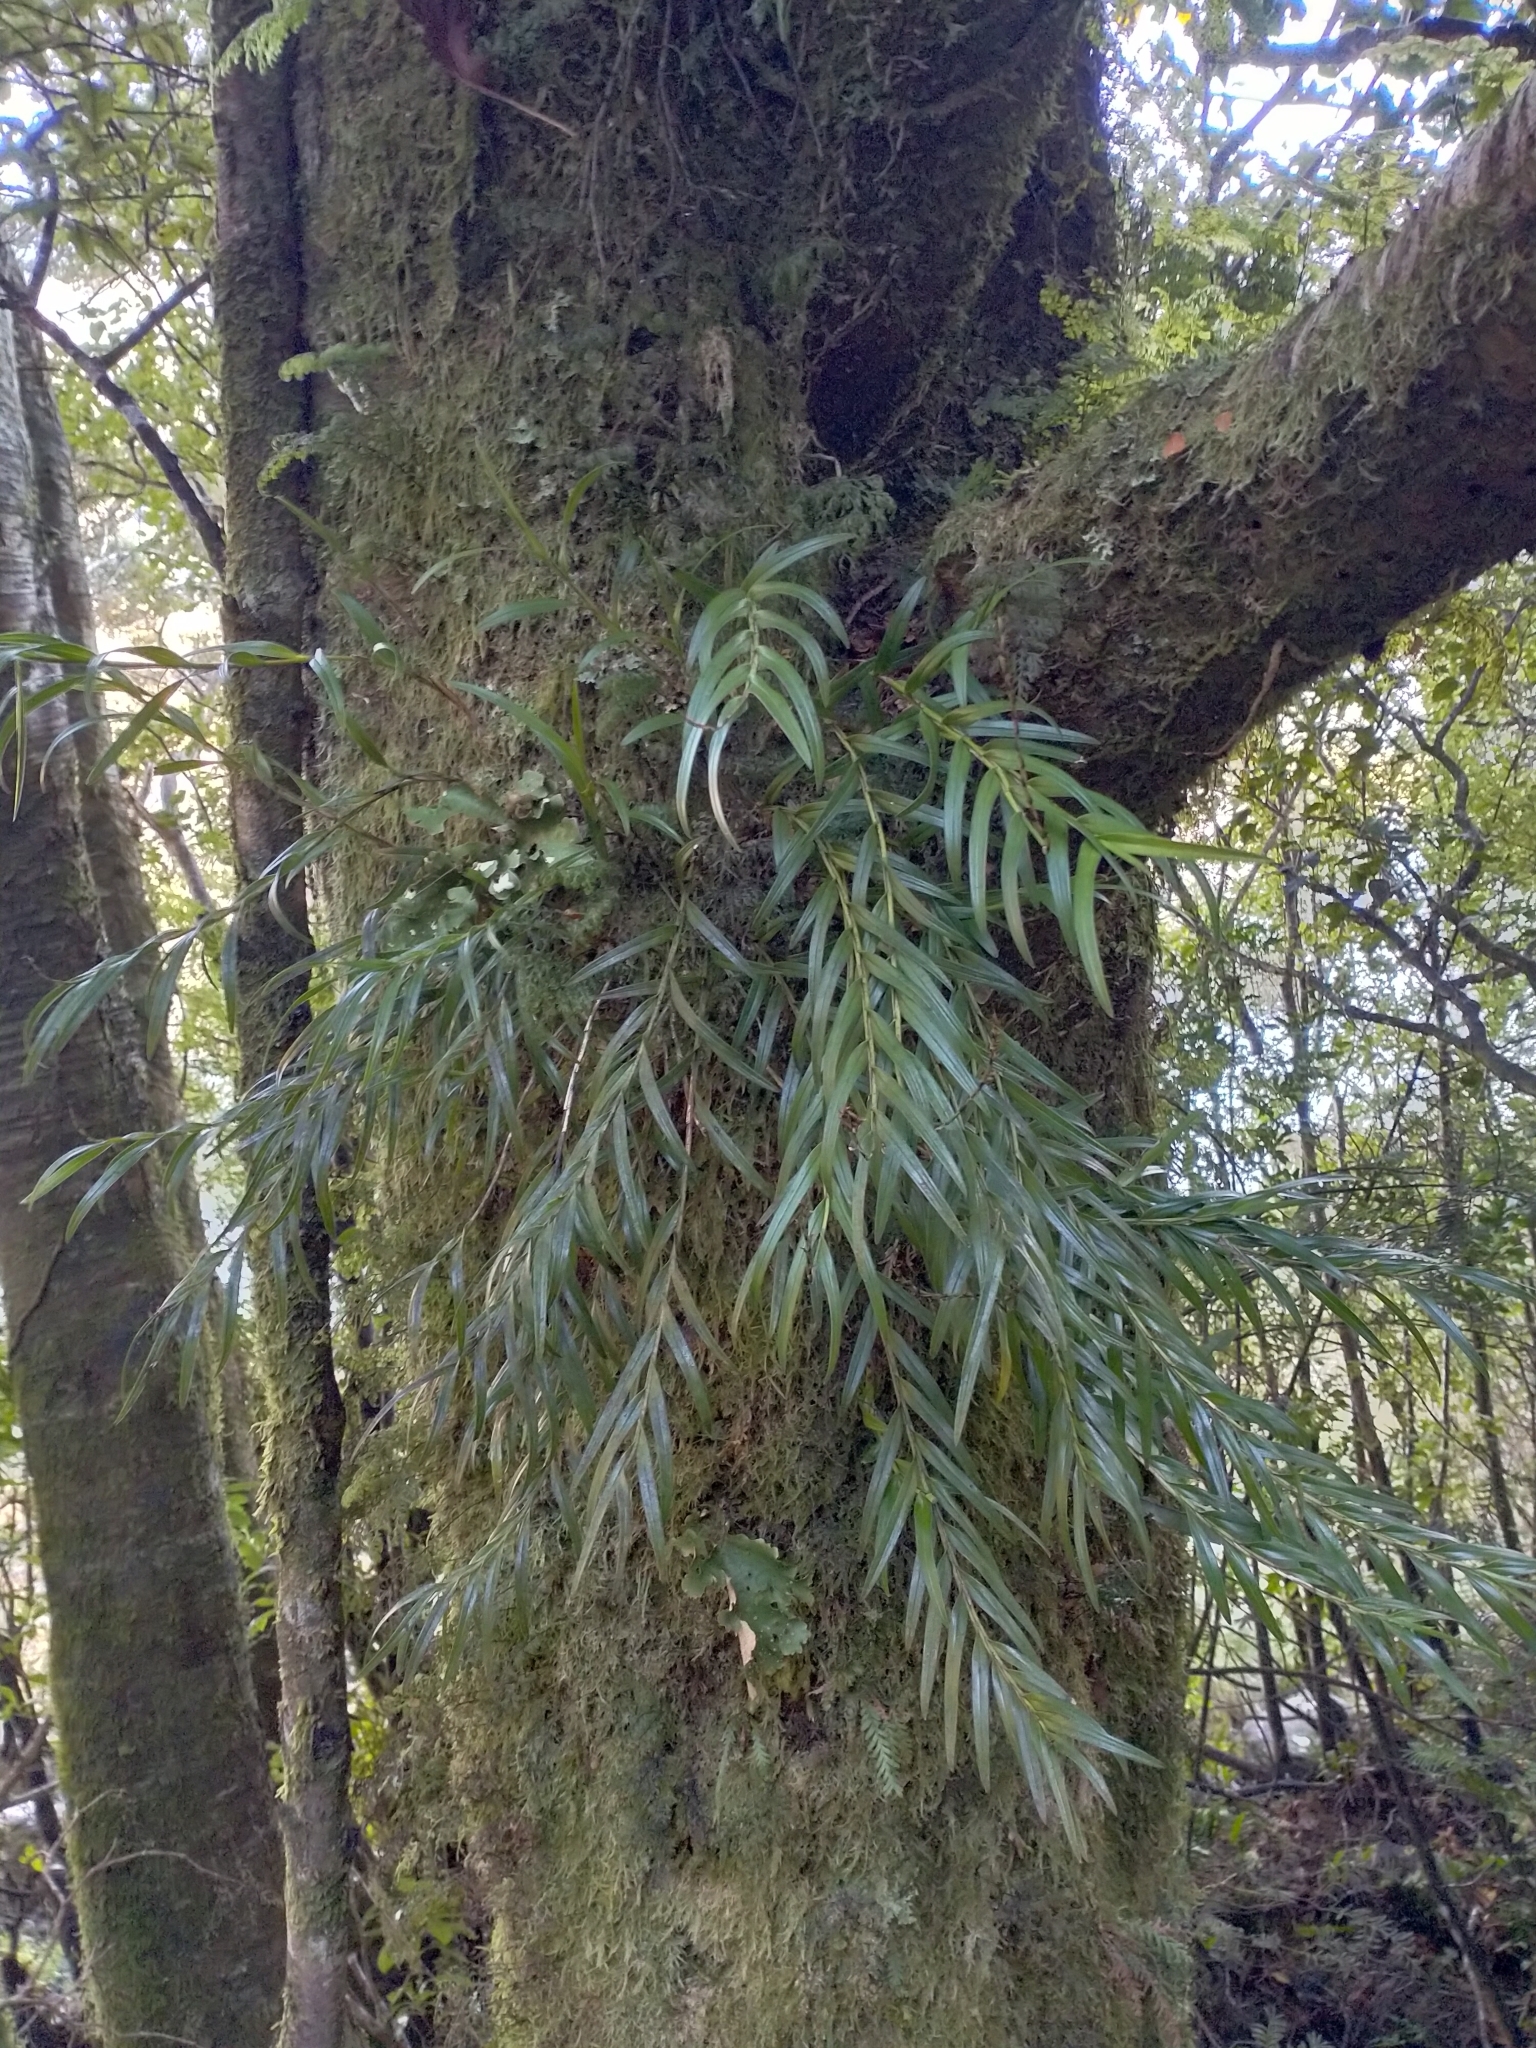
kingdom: Plantae
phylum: Tracheophyta
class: Liliopsida
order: Asparagales
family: Orchidaceae
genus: Earina
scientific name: Earina autumnalis
